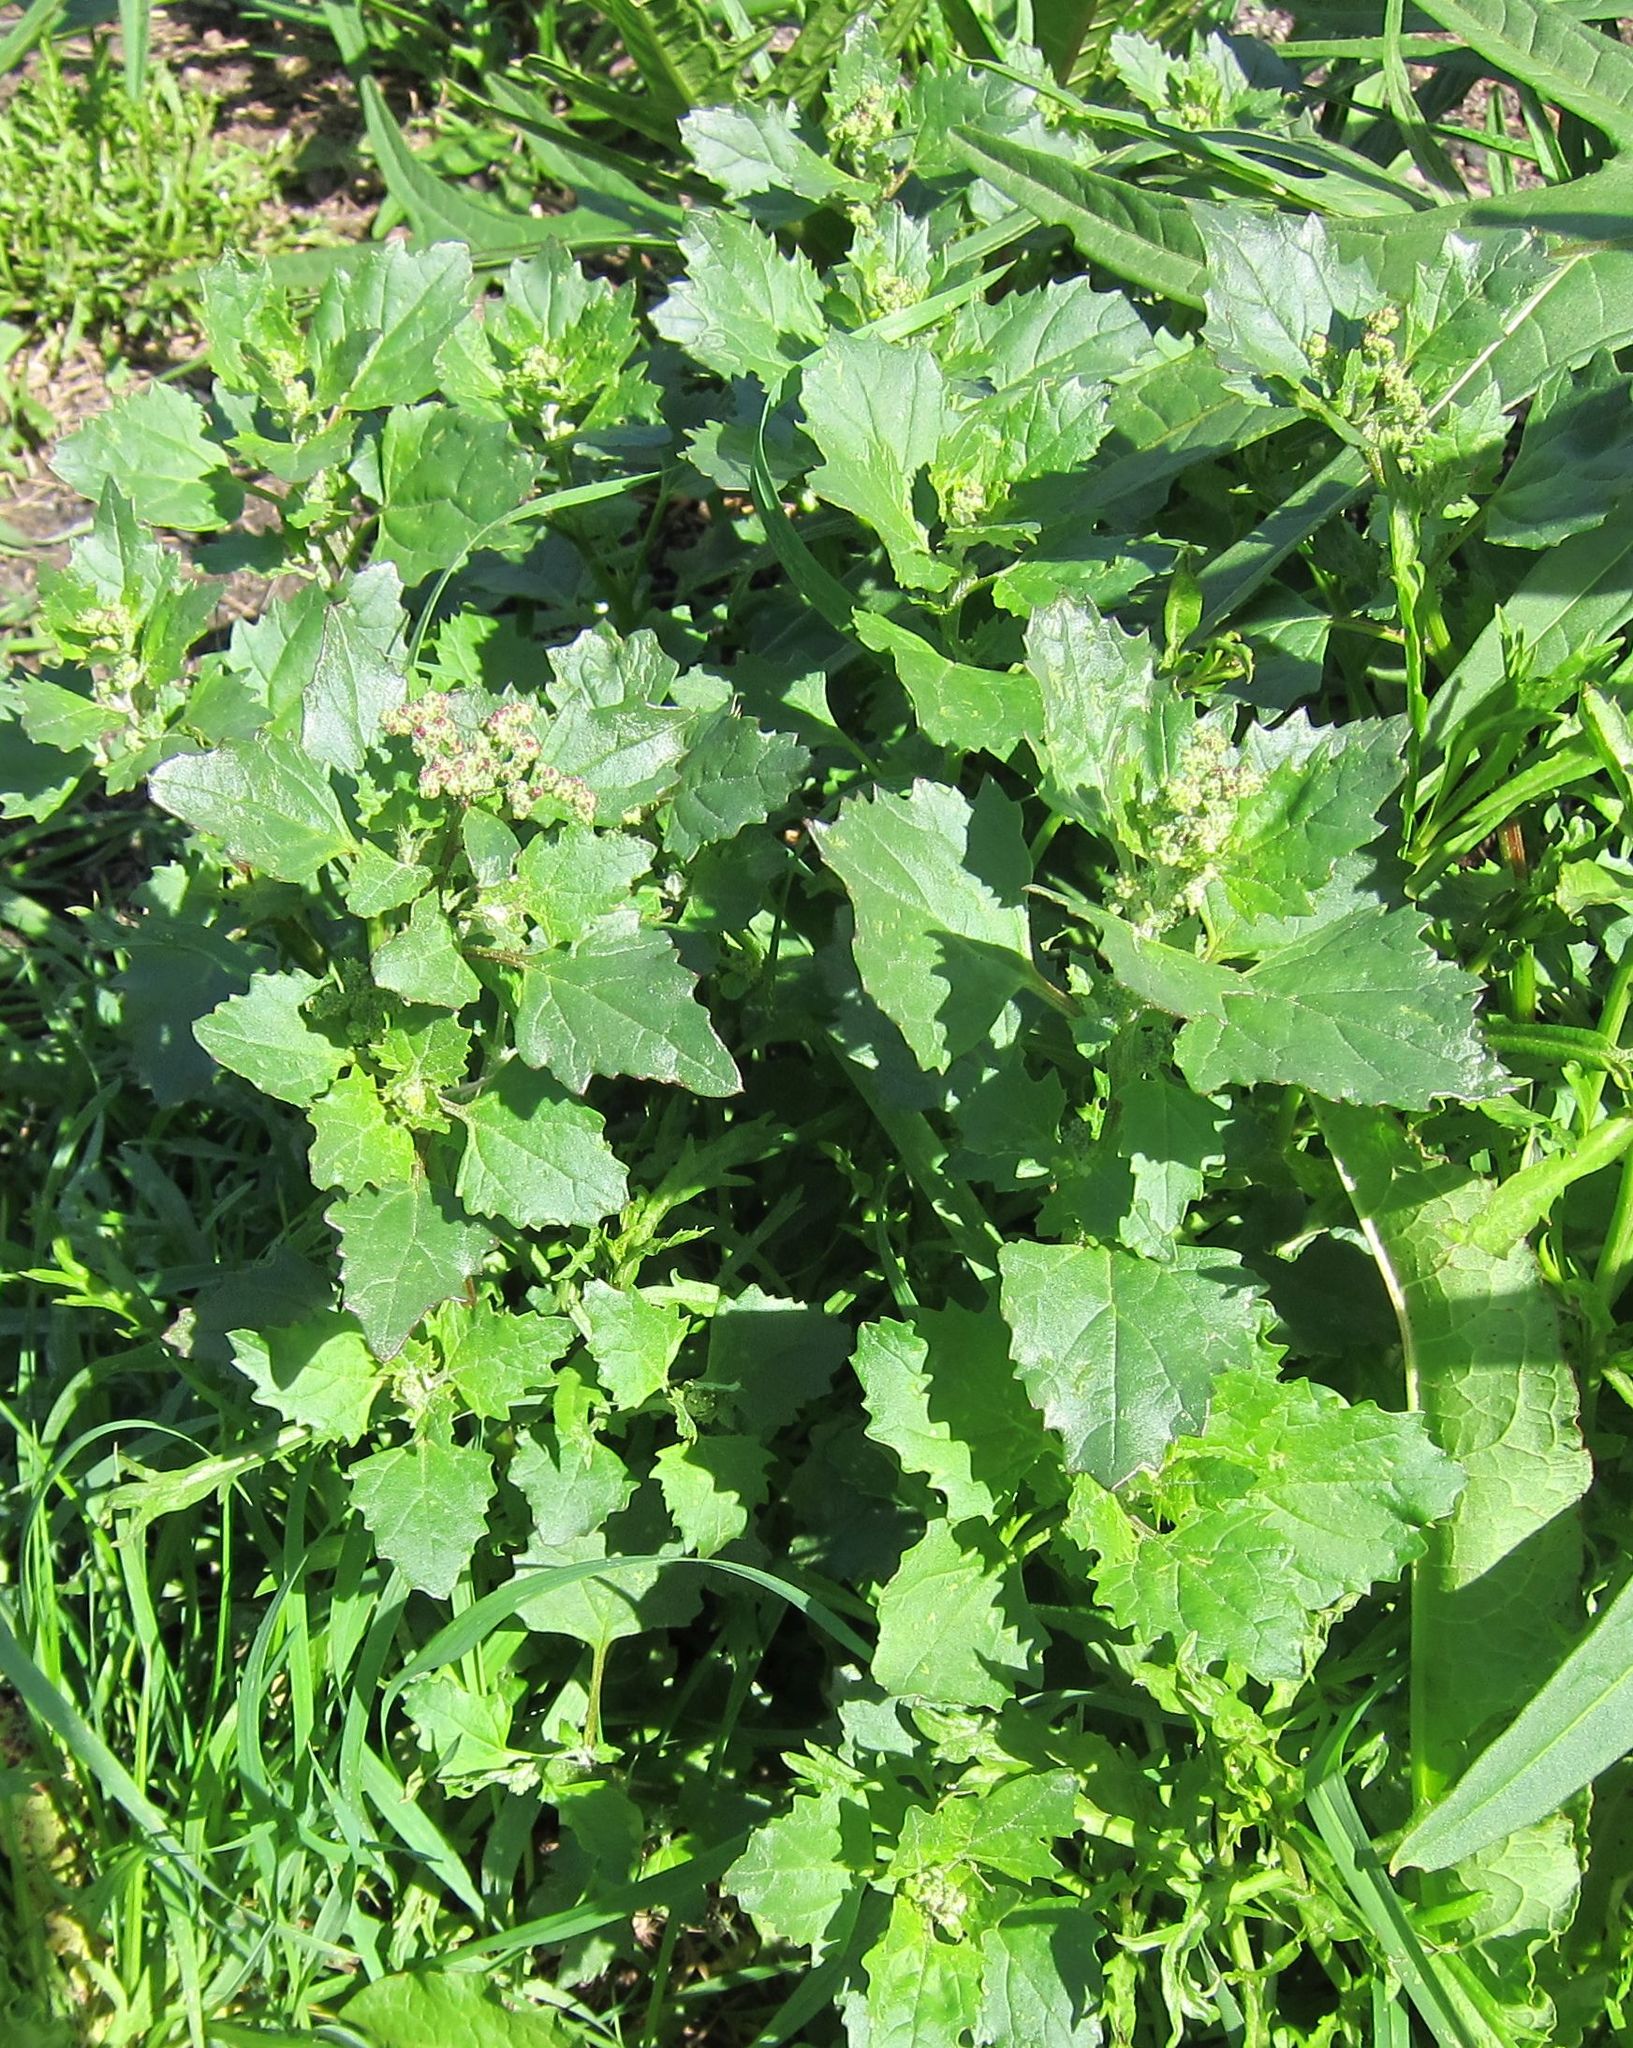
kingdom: Plantae
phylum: Tracheophyta
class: Magnoliopsida
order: Caryophyllales
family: Amaranthaceae
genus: Chenopodiastrum
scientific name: Chenopodiastrum murale
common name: Sowbane
